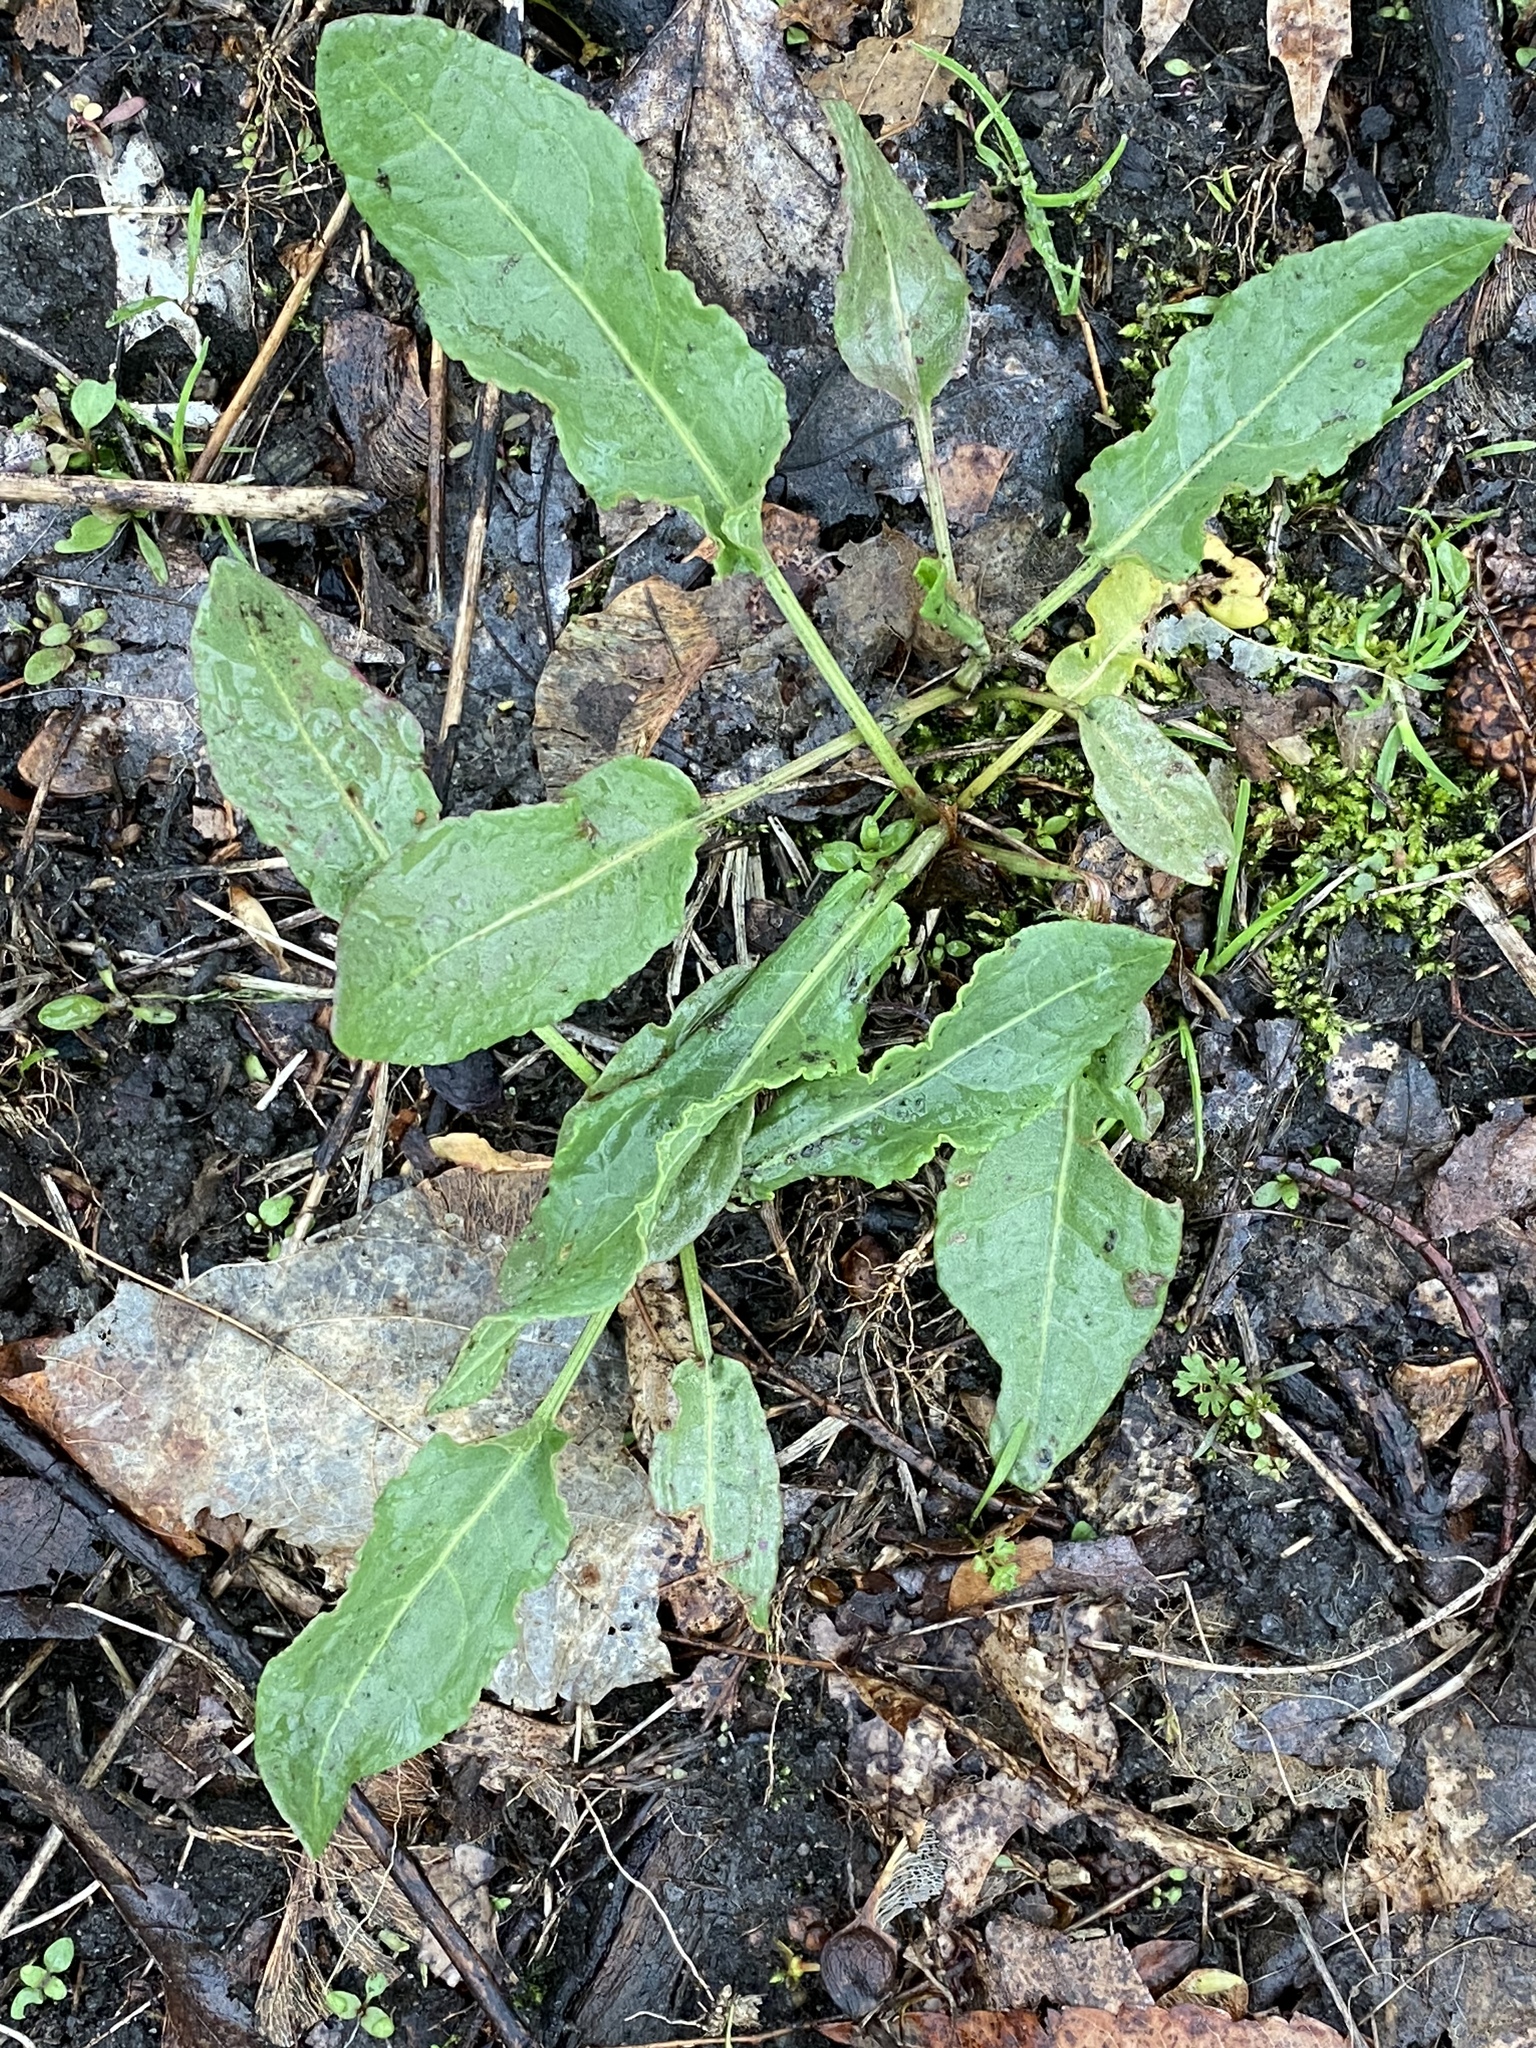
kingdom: Plantae
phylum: Tracheophyta
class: Magnoliopsida
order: Caryophyllales
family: Polygonaceae
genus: Rumex
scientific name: Rumex crispus
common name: Curled dock
